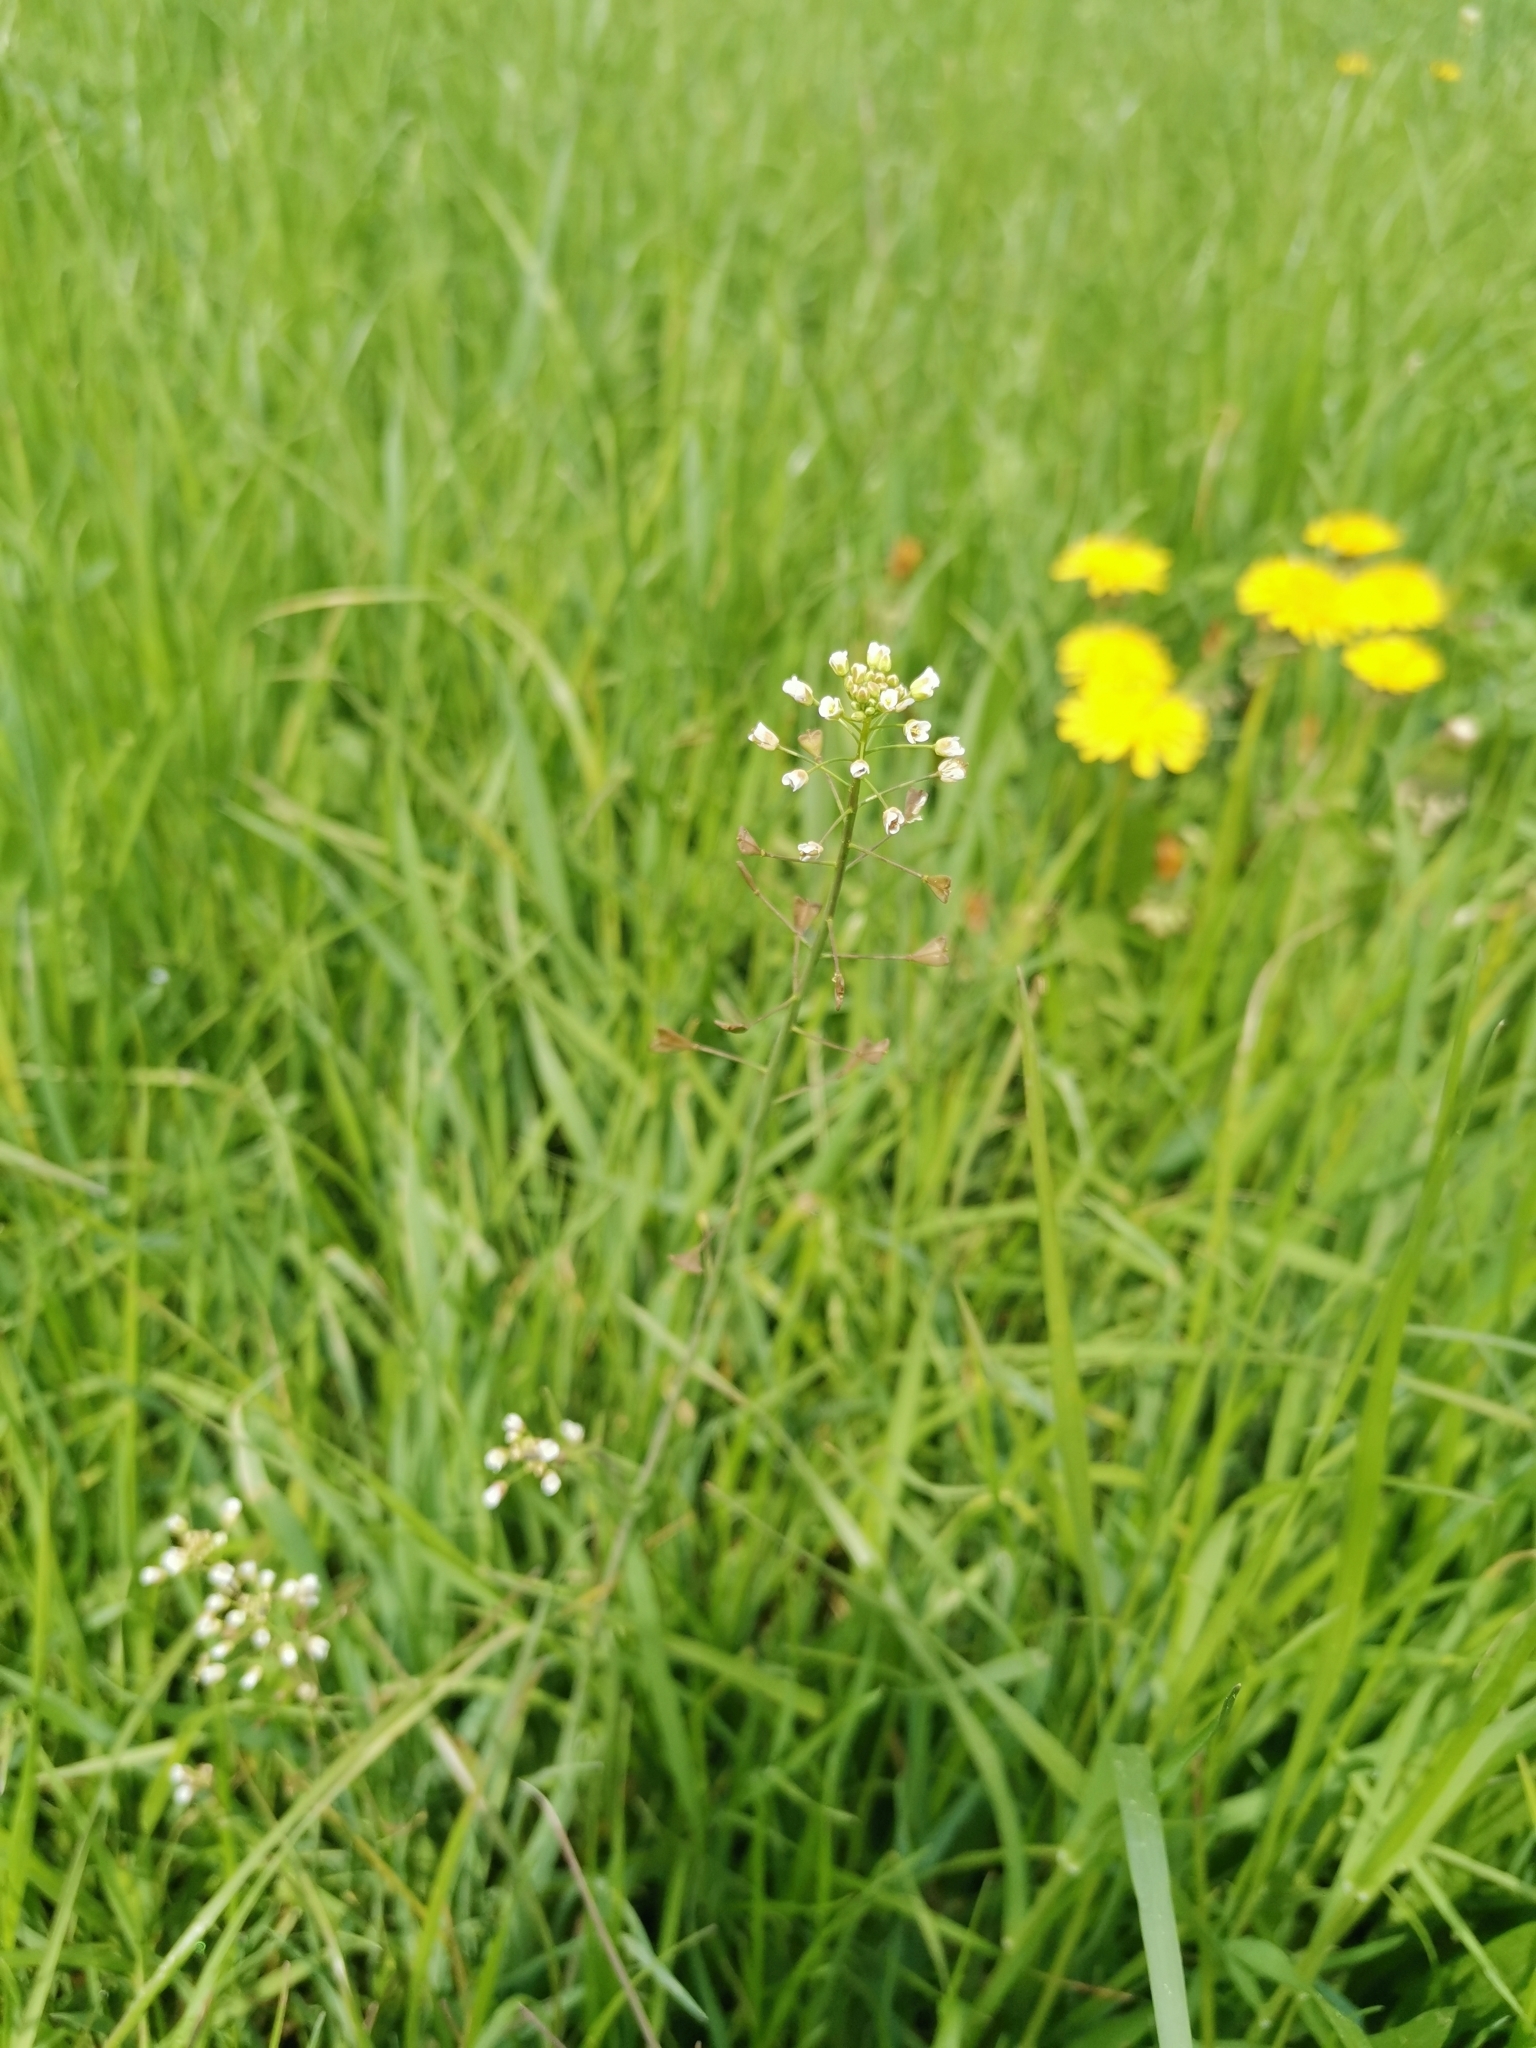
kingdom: Plantae
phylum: Tracheophyta
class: Magnoliopsida
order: Brassicales
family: Brassicaceae
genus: Capsella
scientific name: Capsella bursa-pastoris
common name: Shepherd's purse
